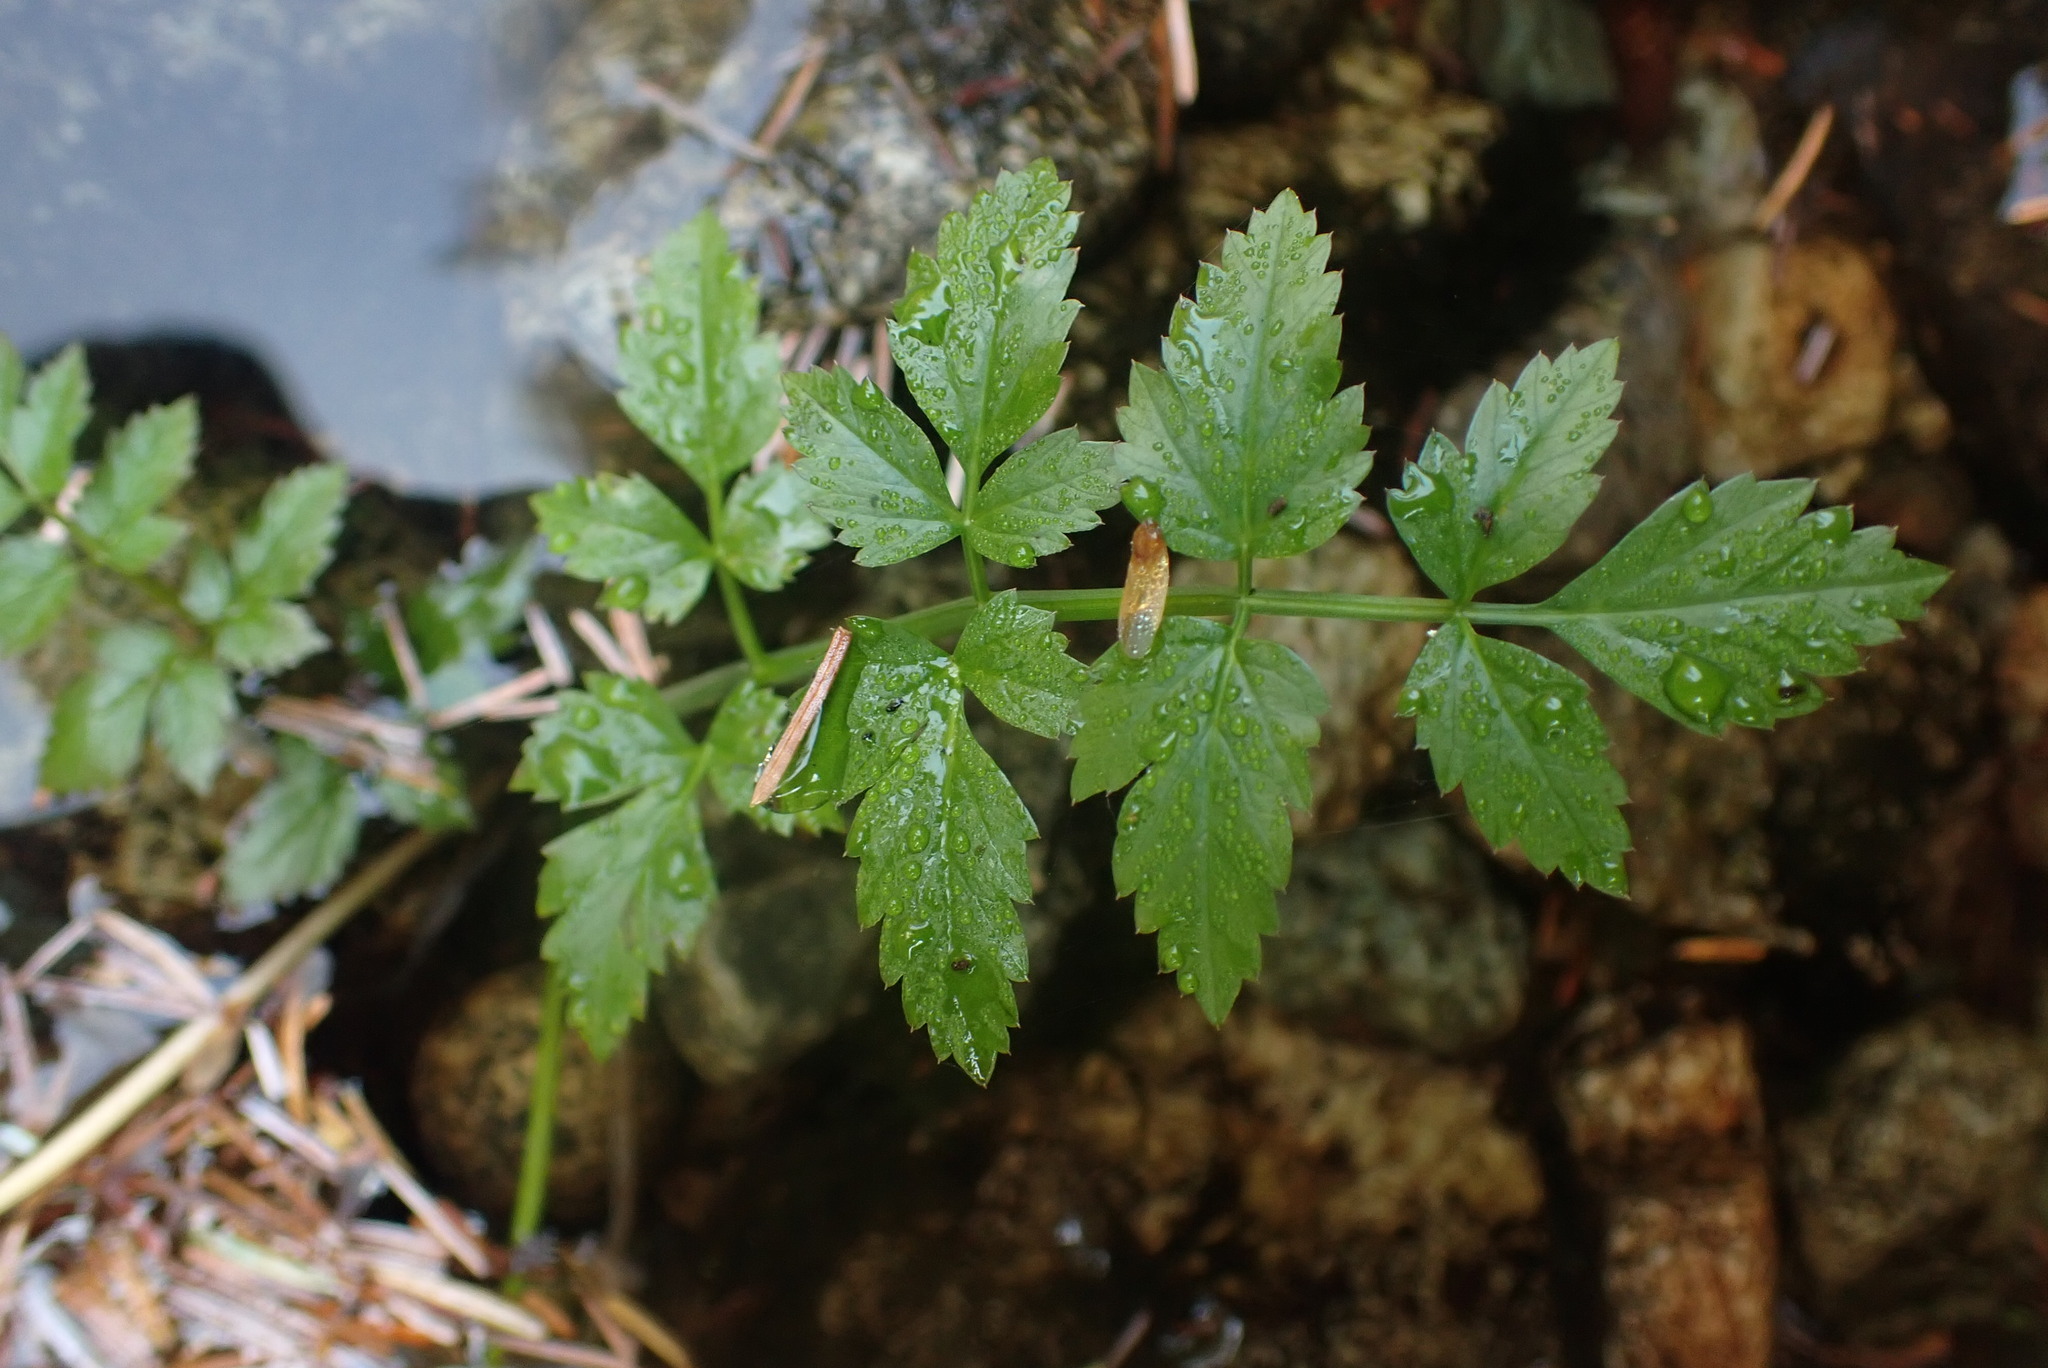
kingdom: Plantae
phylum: Tracheophyta
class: Magnoliopsida
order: Apiales
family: Apiaceae
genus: Oenanthe
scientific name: Oenanthe sarmentosa
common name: American water-parsley
